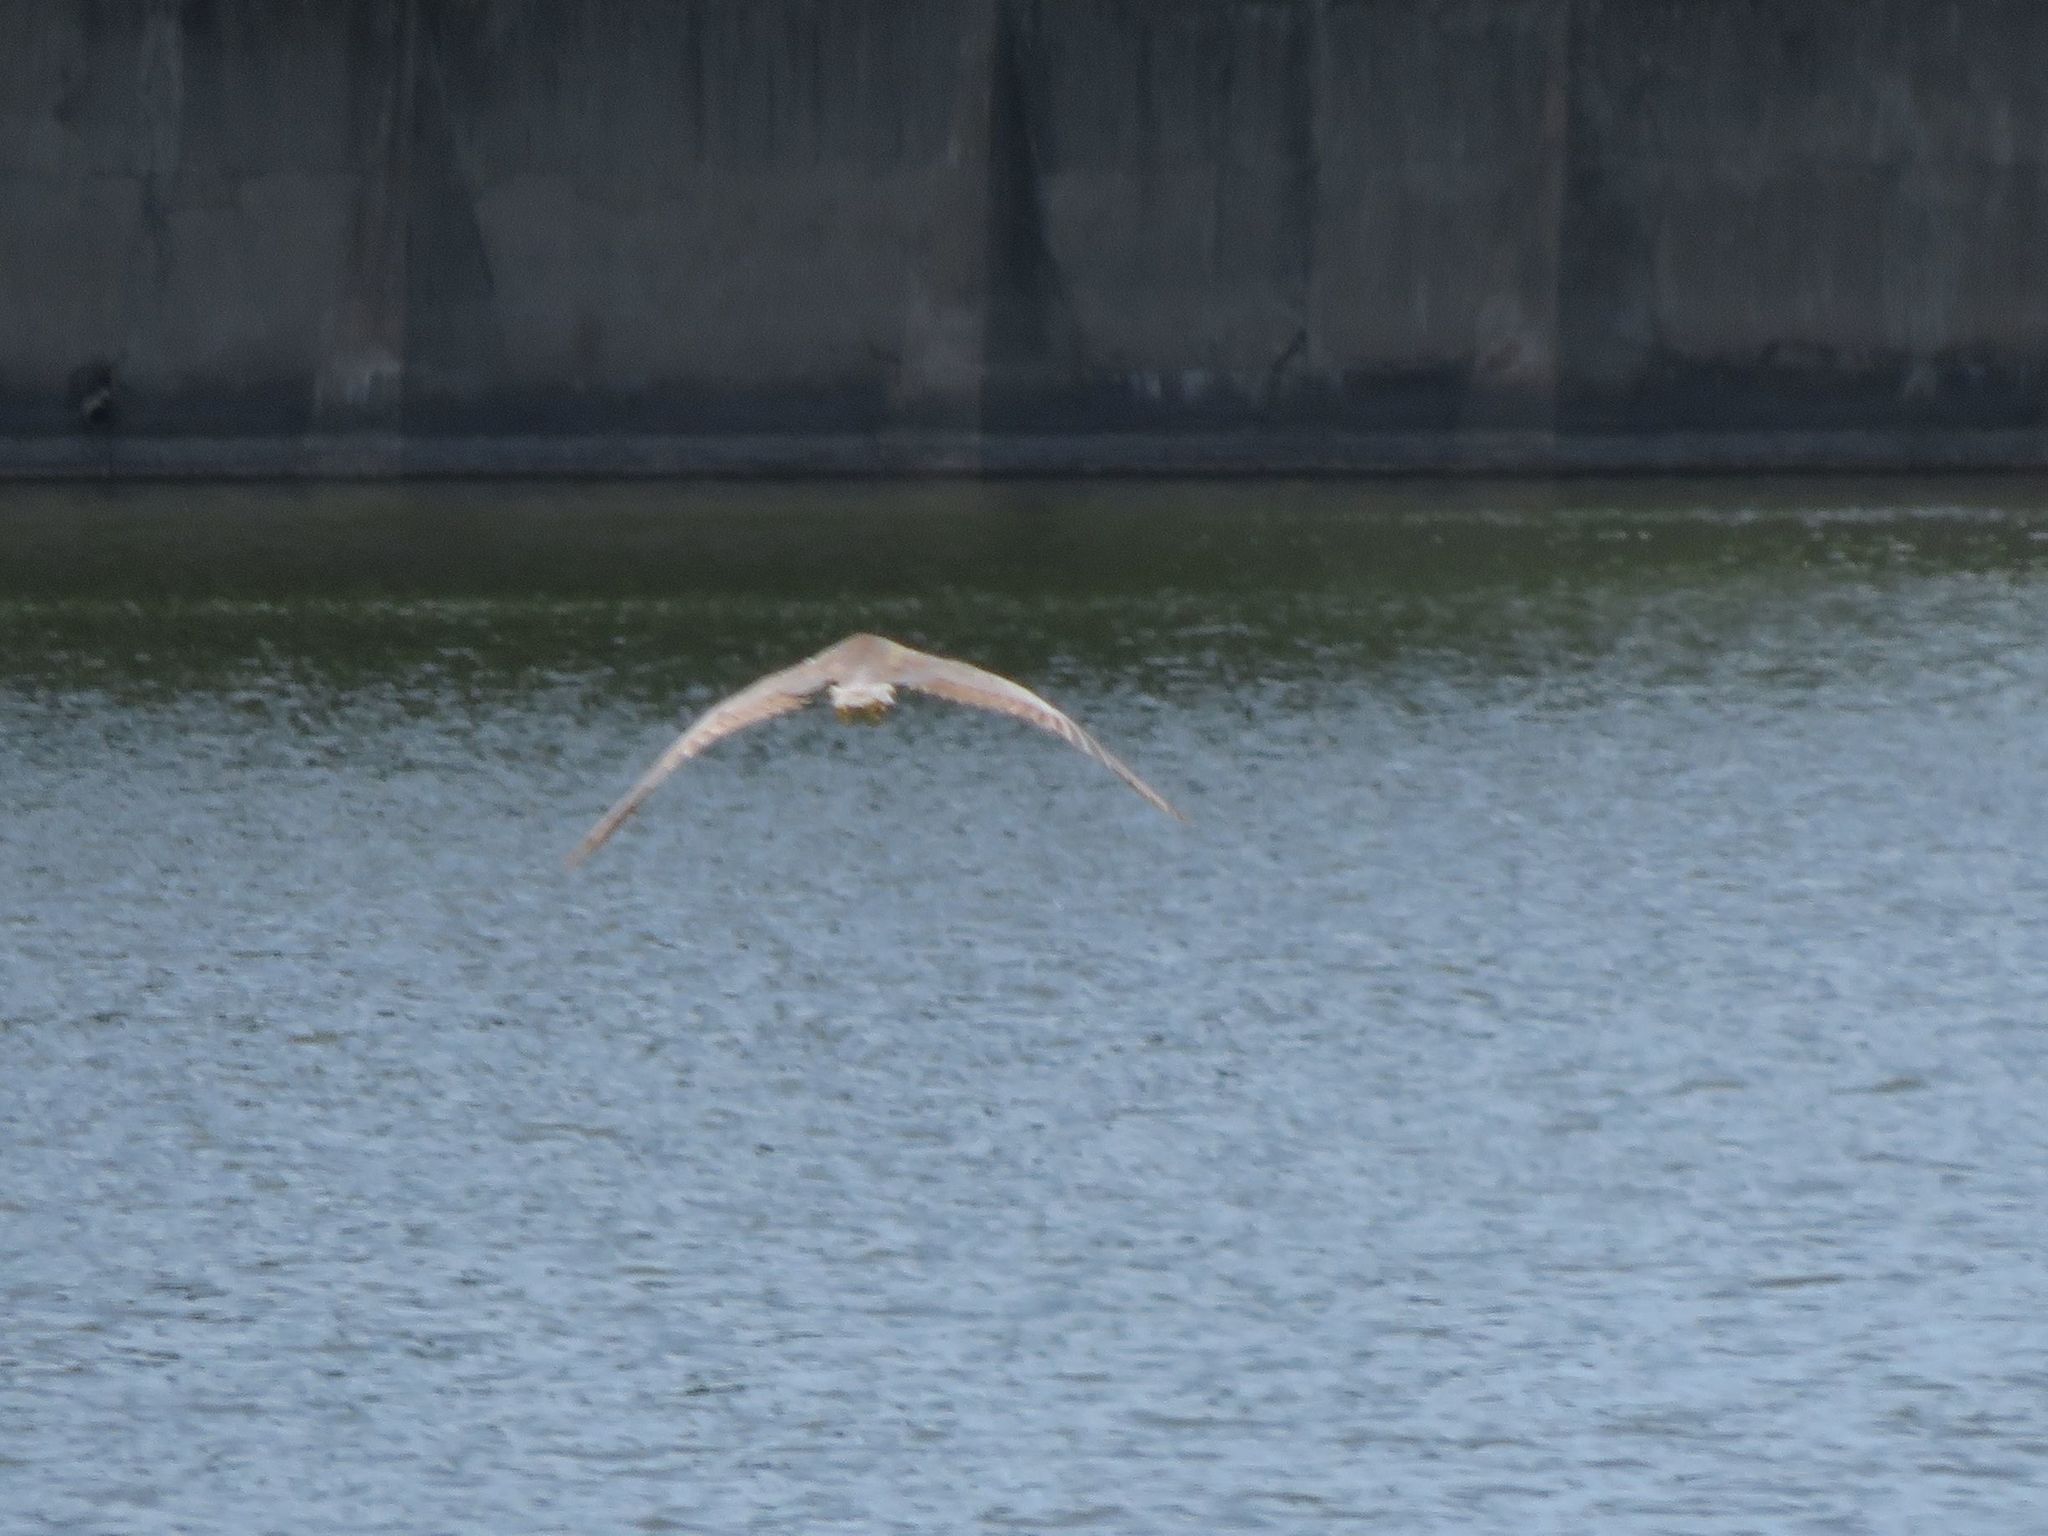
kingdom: Animalia
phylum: Chordata
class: Aves
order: Pelecaniformes
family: Ardeidae
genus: Nycticorax
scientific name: Nycticorax nycticorax
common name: Black-crowned night heron
